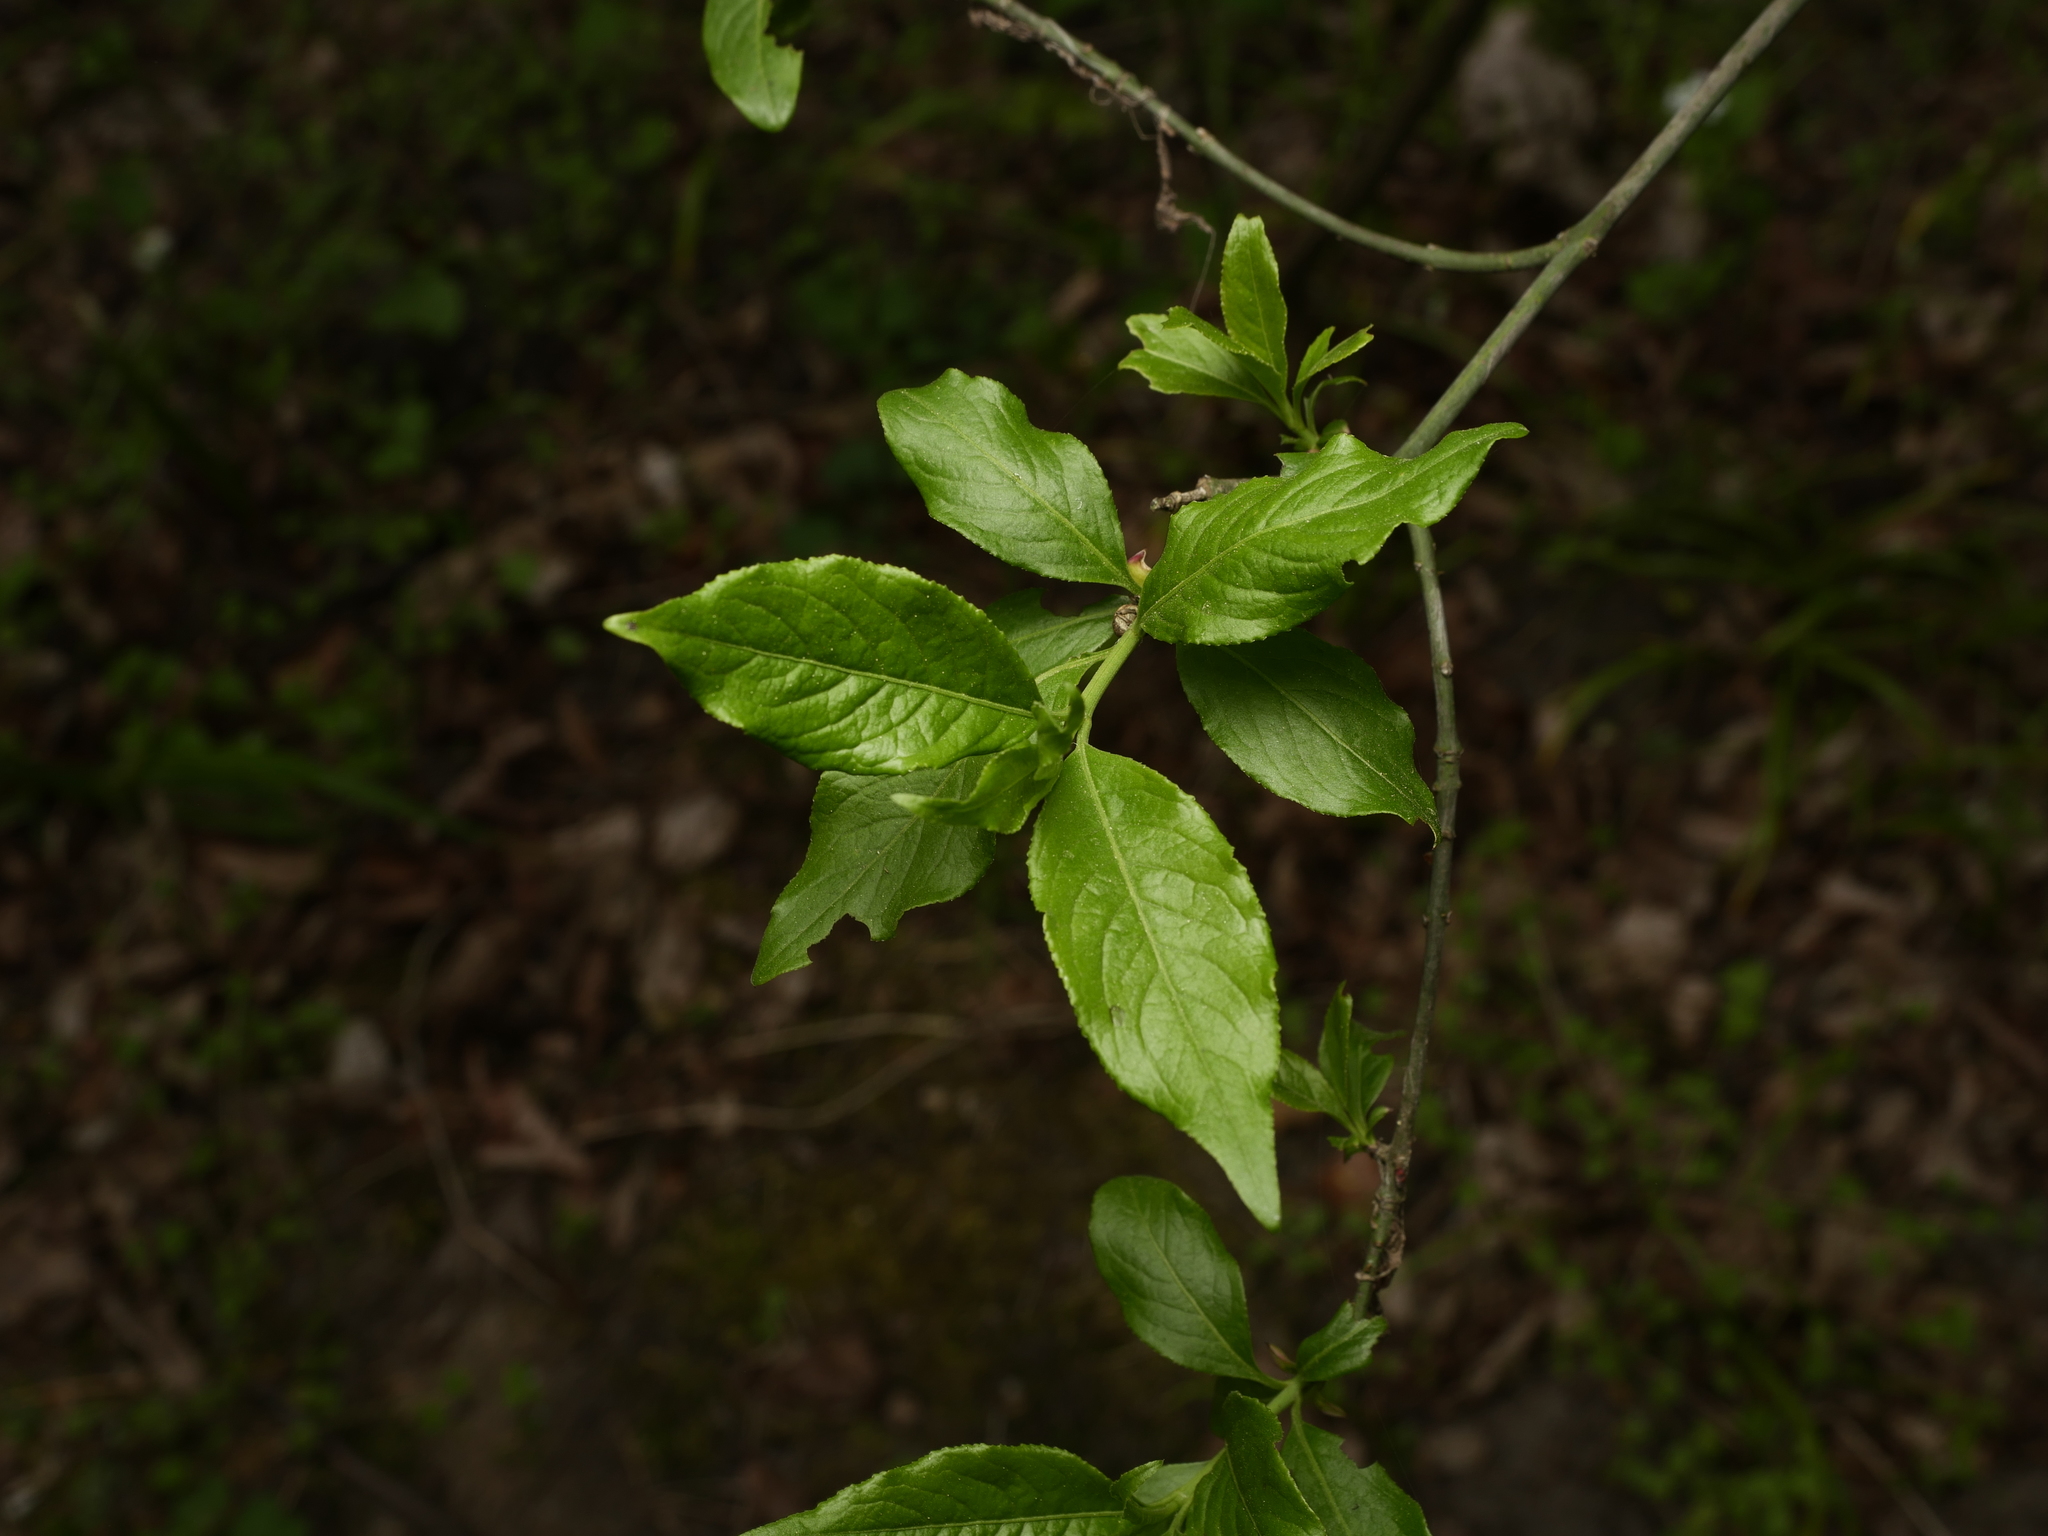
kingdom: Plantae
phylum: Tracheophyta
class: Magnoliopsida
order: Celastrales
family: Celastraceae
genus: Euonymus
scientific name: Euonymus europaeus
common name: Spindle
